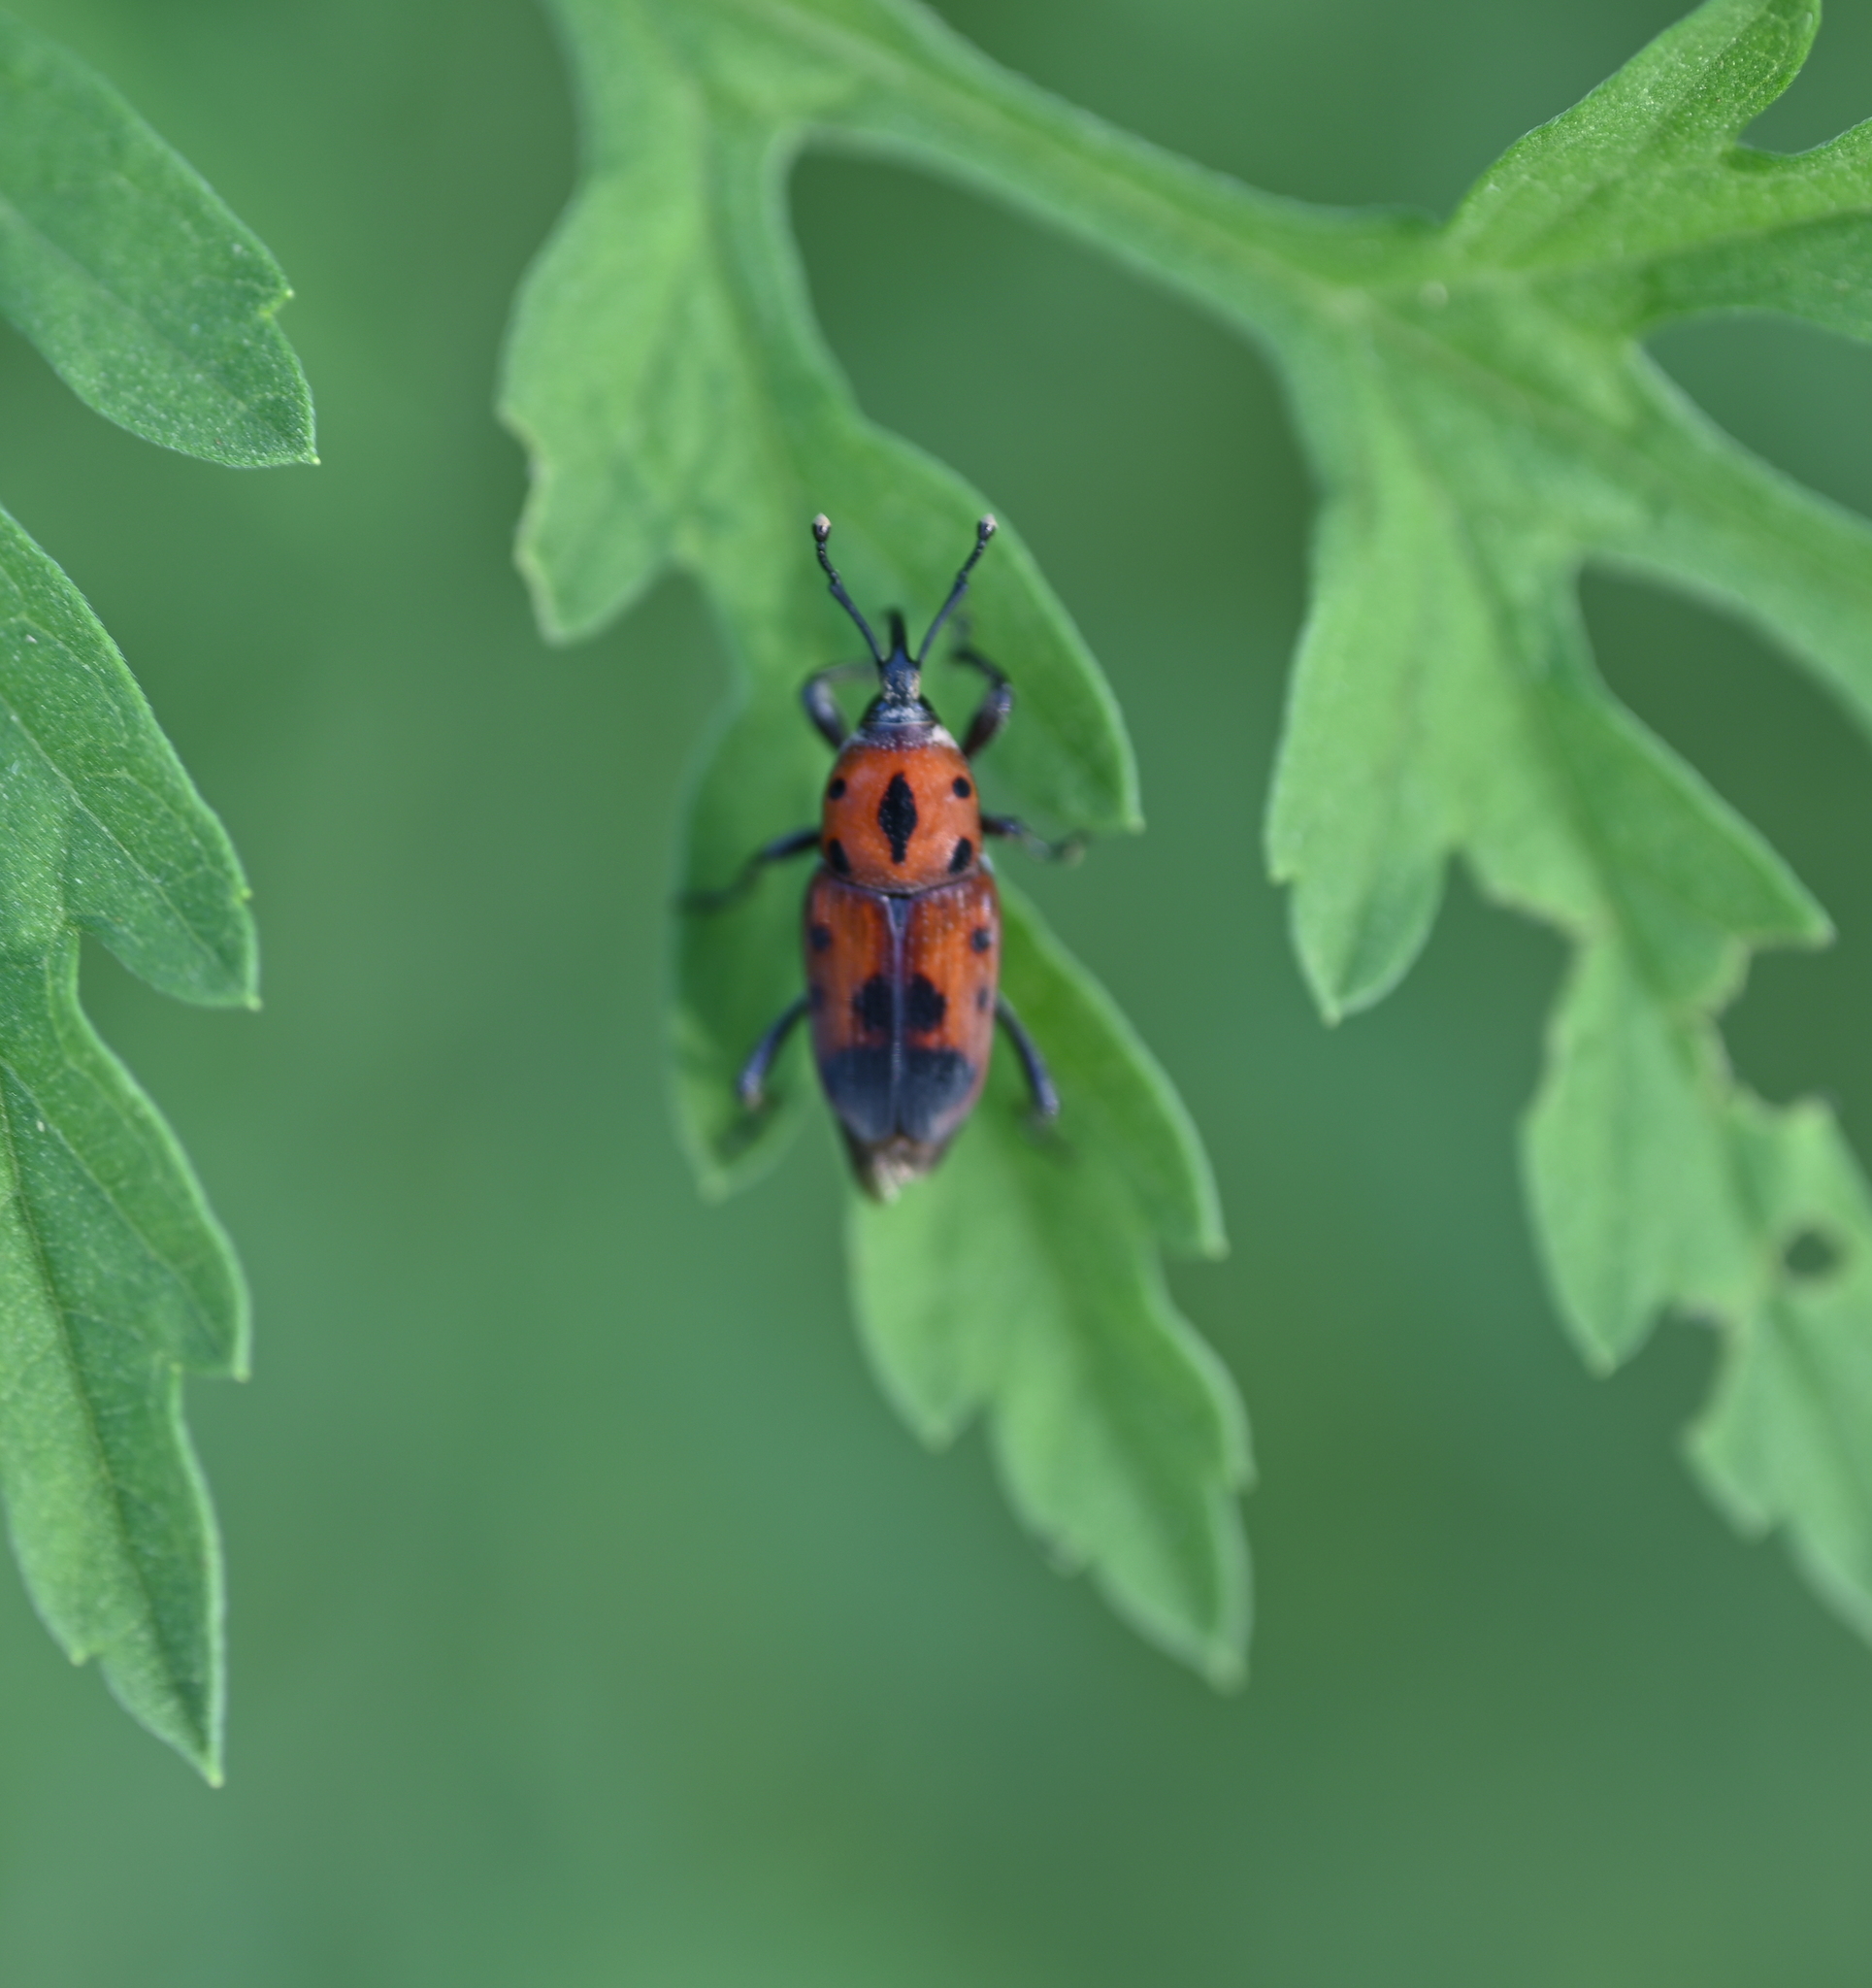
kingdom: Animalia
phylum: Arthropoda
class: Insecta
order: Coleoptera
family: Dryophthoridae
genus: Rhodobaenus
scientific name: Rhodobaenus quinquepunctatus
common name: Cocklebur weevil
